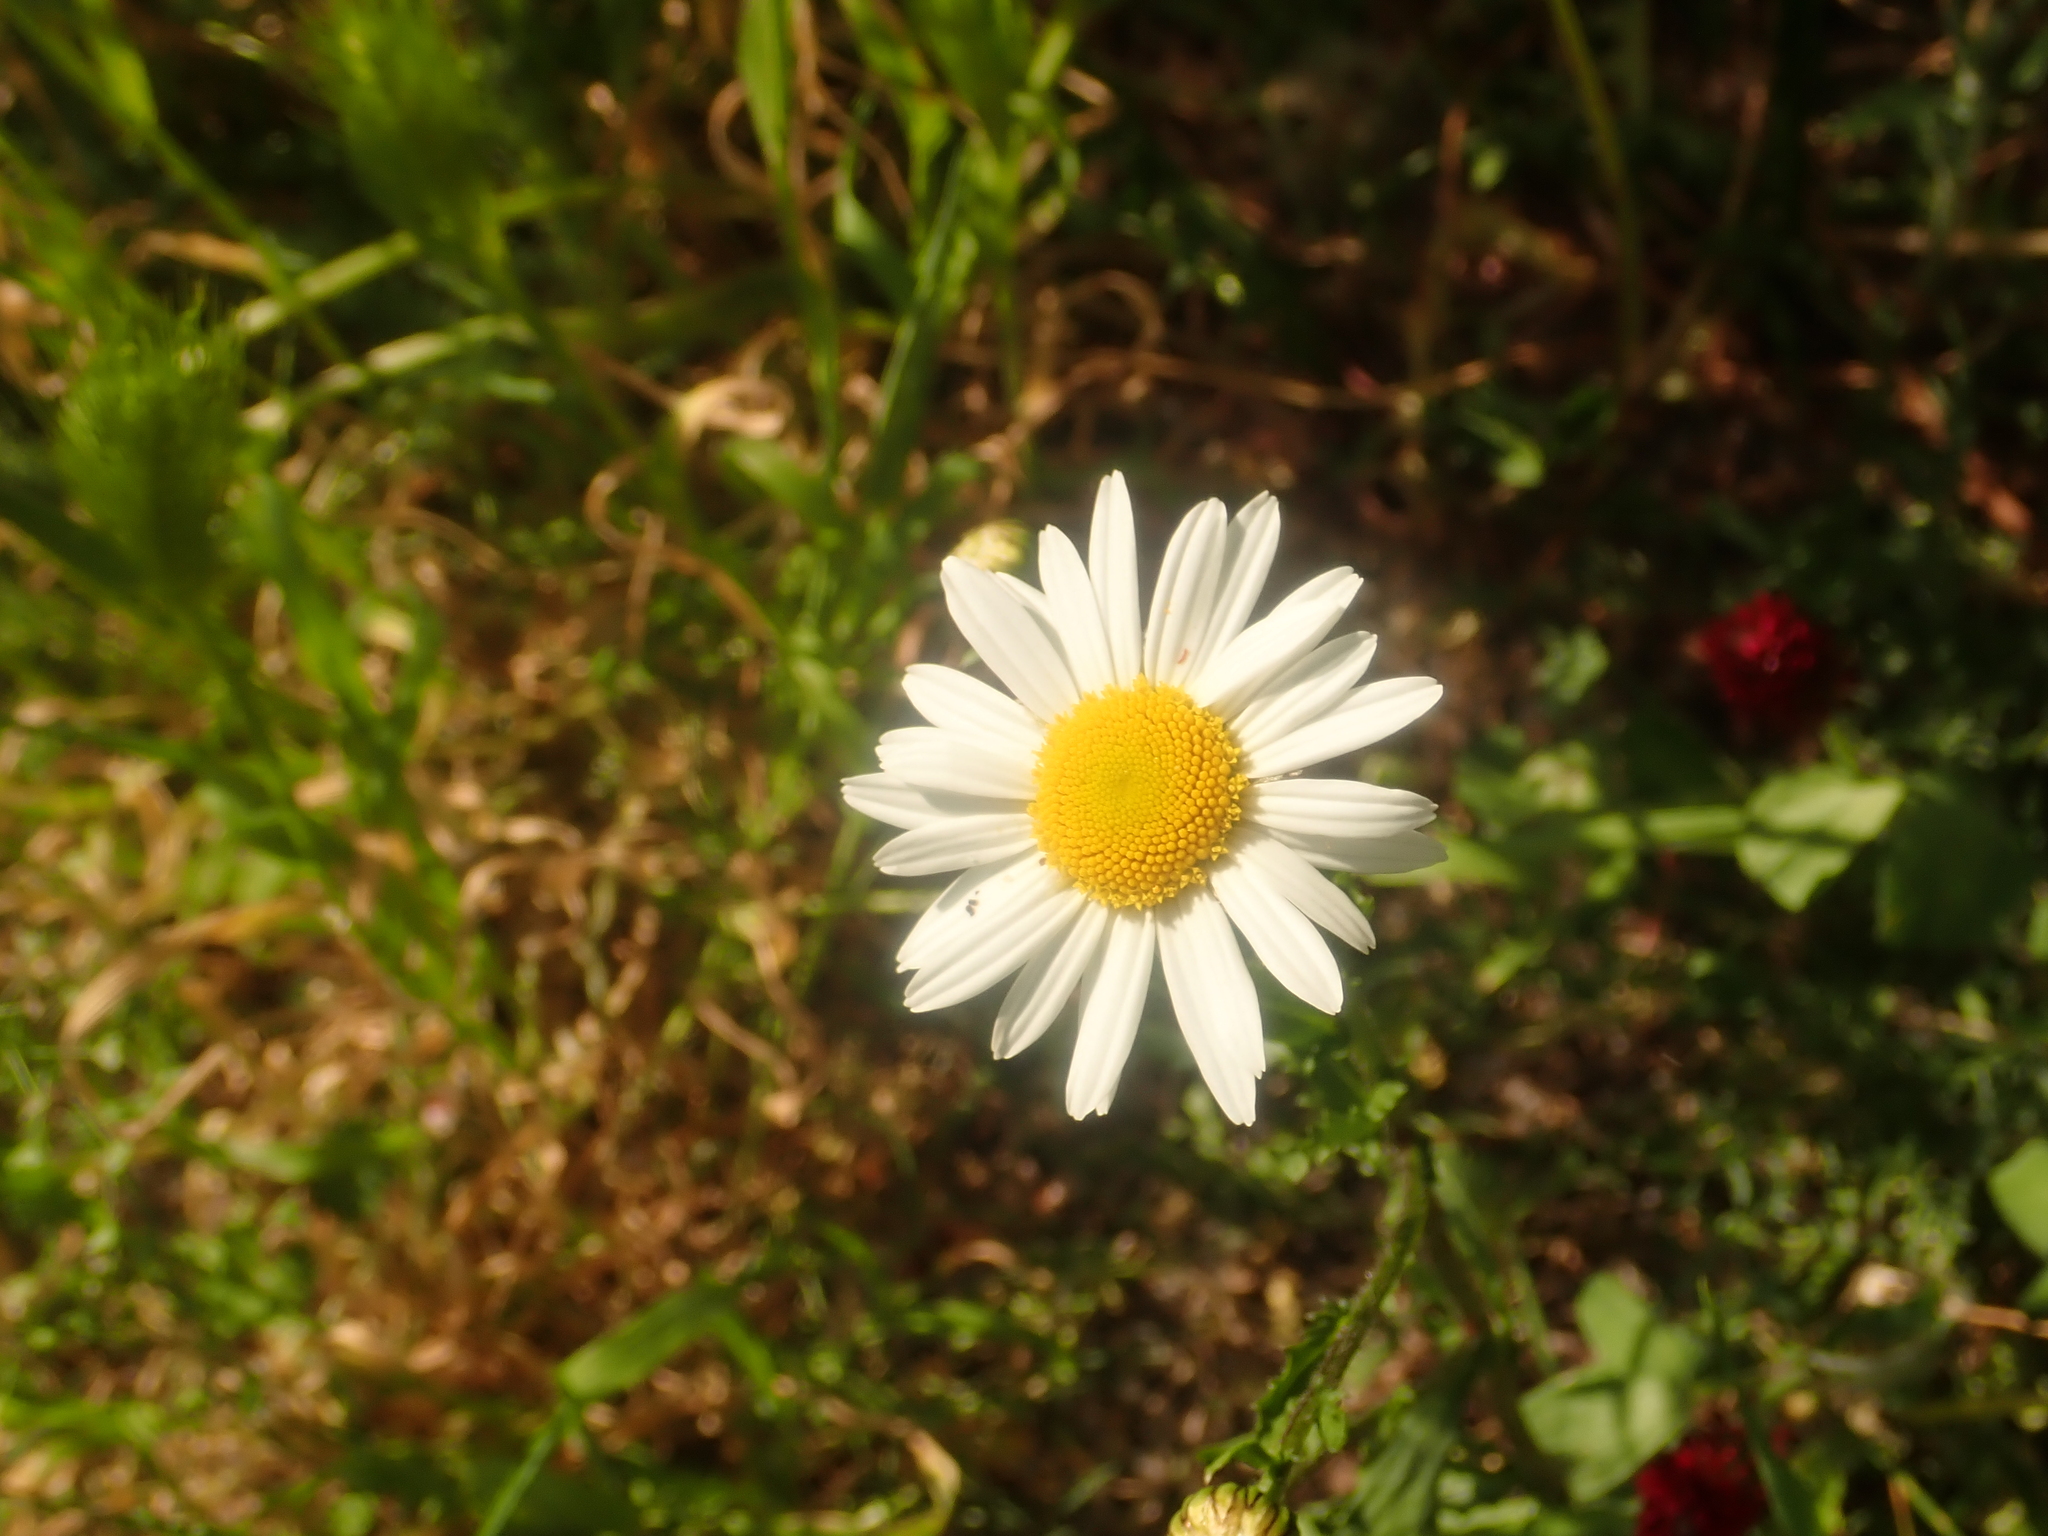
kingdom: Plantae
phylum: Tracheophyta
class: Magnoliopsida
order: Asterales
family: Asteraceae
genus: Tripleurospermum
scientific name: Tripleurospermum inodorum
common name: Scentless mayweed
